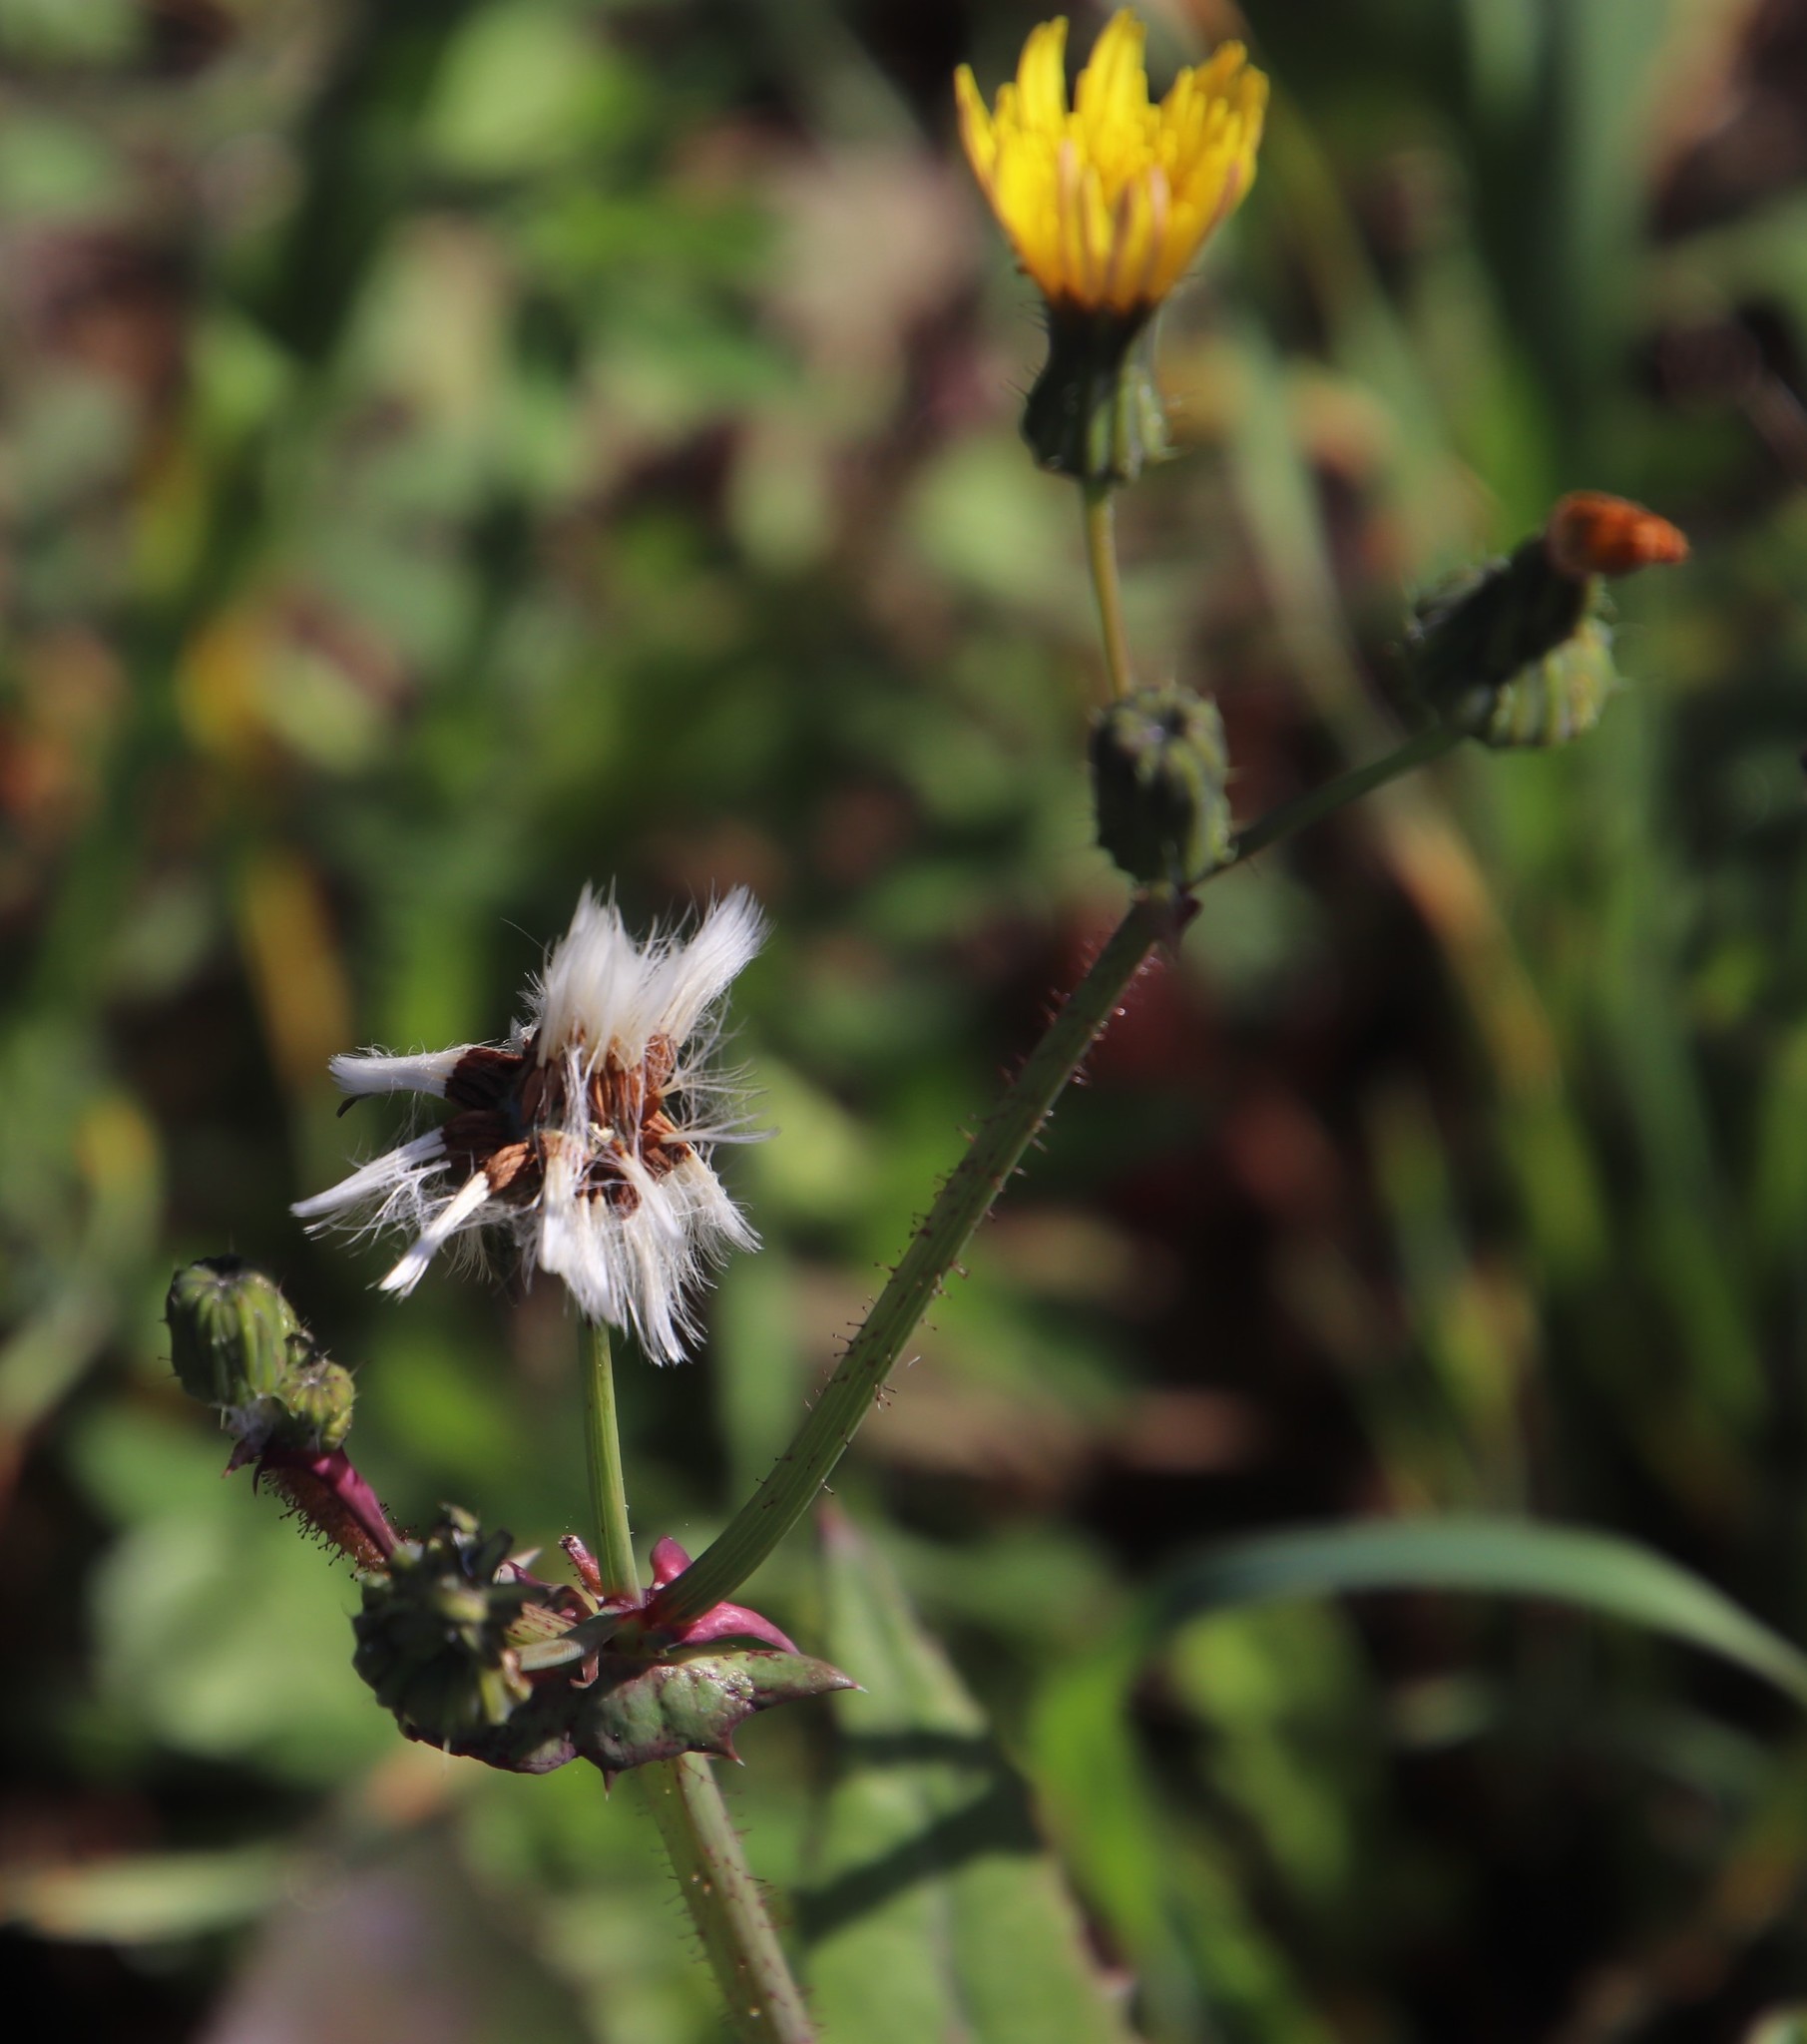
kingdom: Plantae
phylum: Tracheophyta
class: Magnoliopsida
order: Asterales
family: Asteraceae
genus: Sonchus
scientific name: Sonchus oleraceus
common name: Common sowthistle
